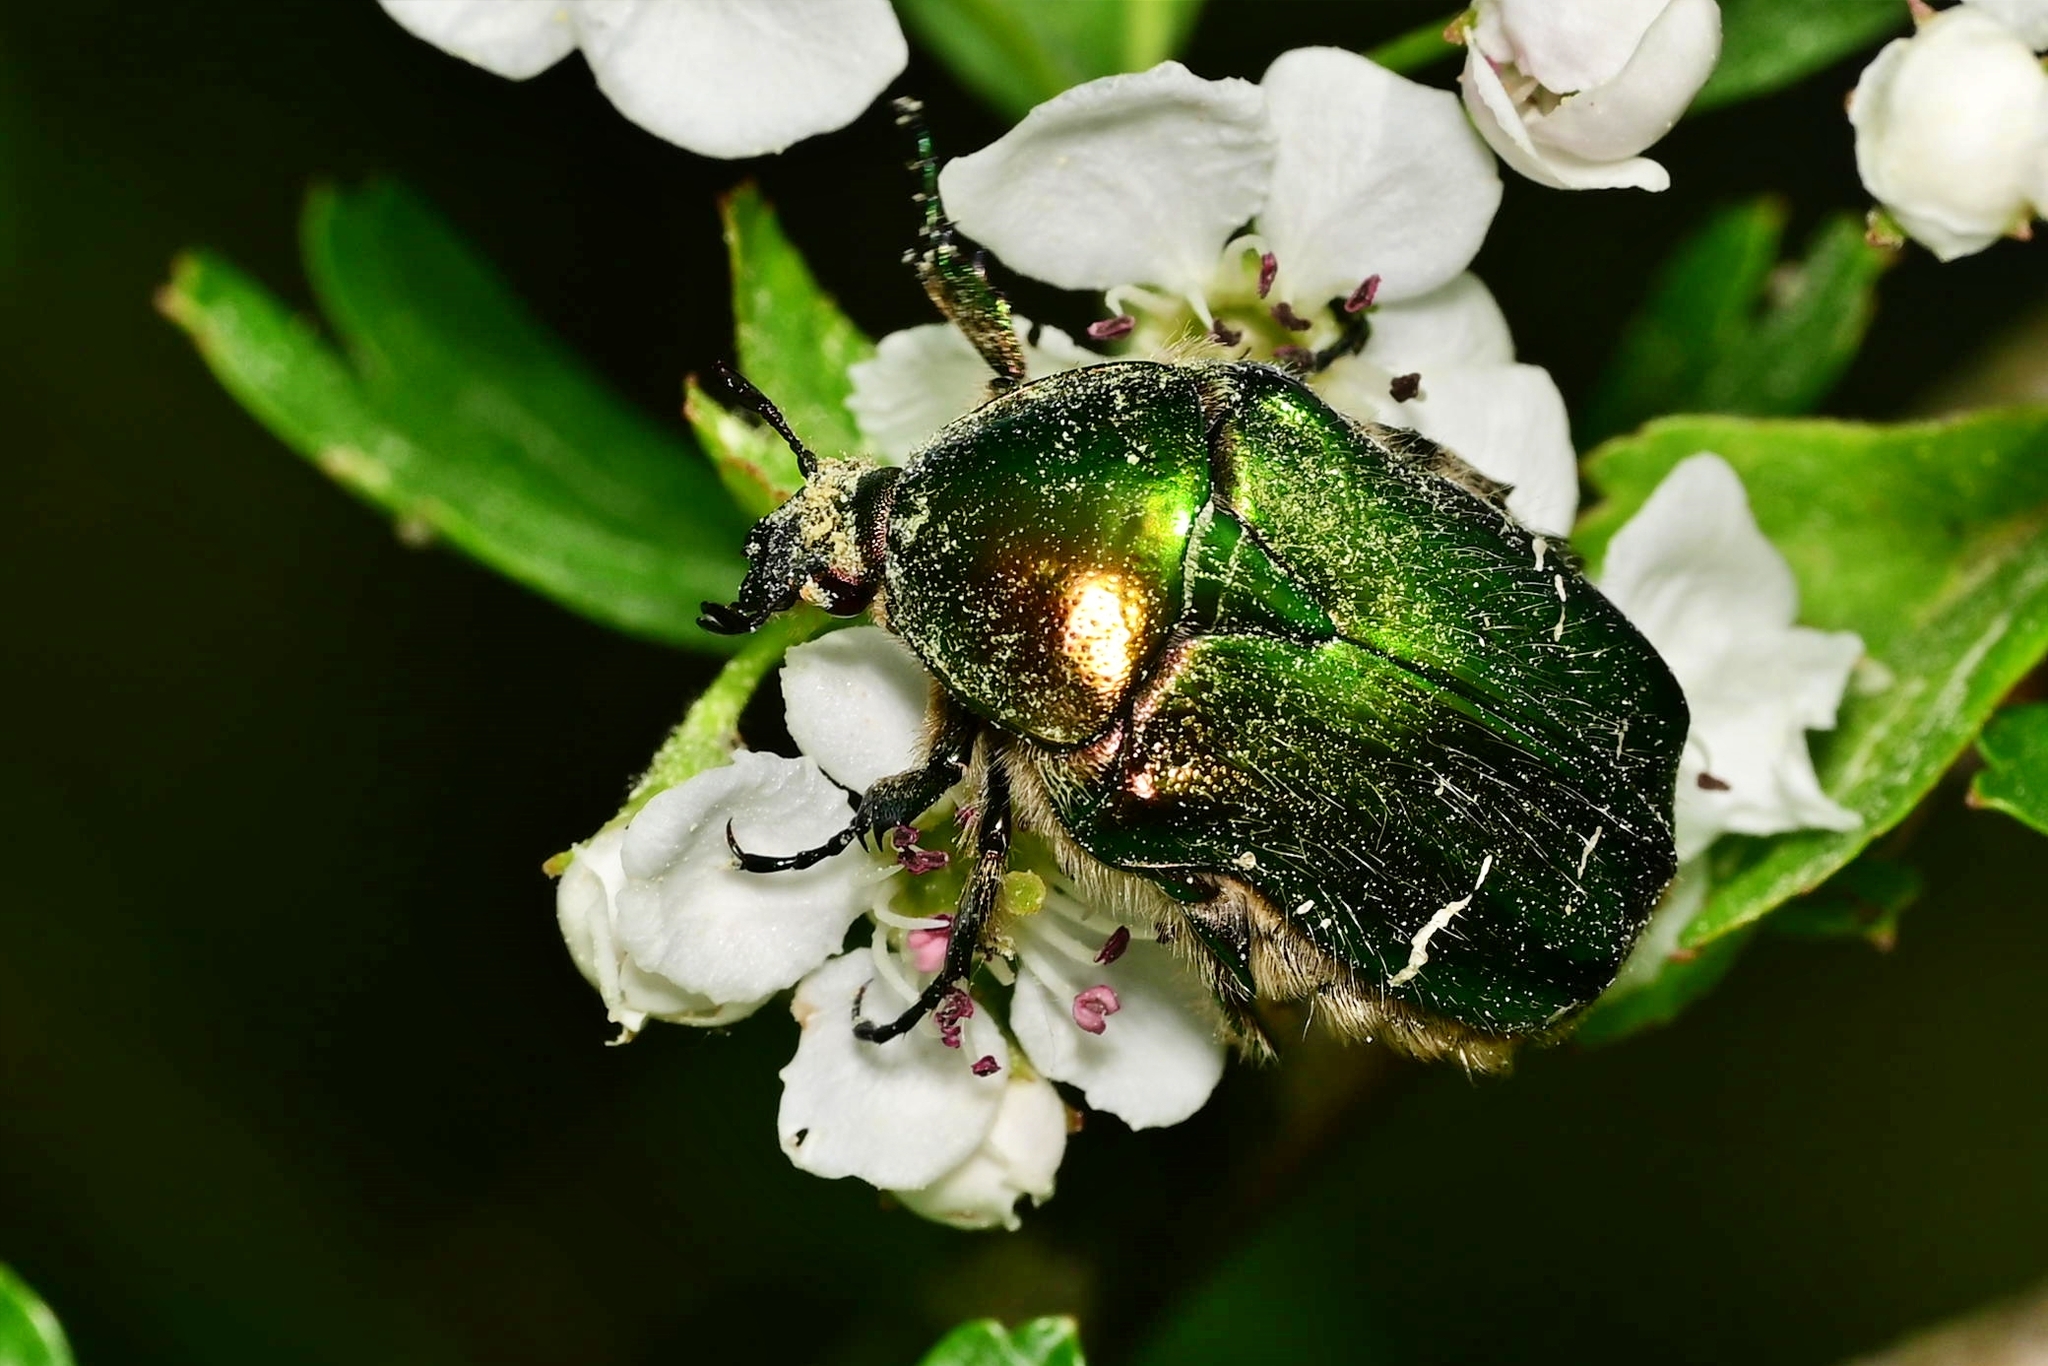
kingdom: Animalia
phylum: Arthropoda
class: Insecta
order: Coleoptera
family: Scarabaeidae
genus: Cetonia
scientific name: Cetonia aurata
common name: Rose chafer
